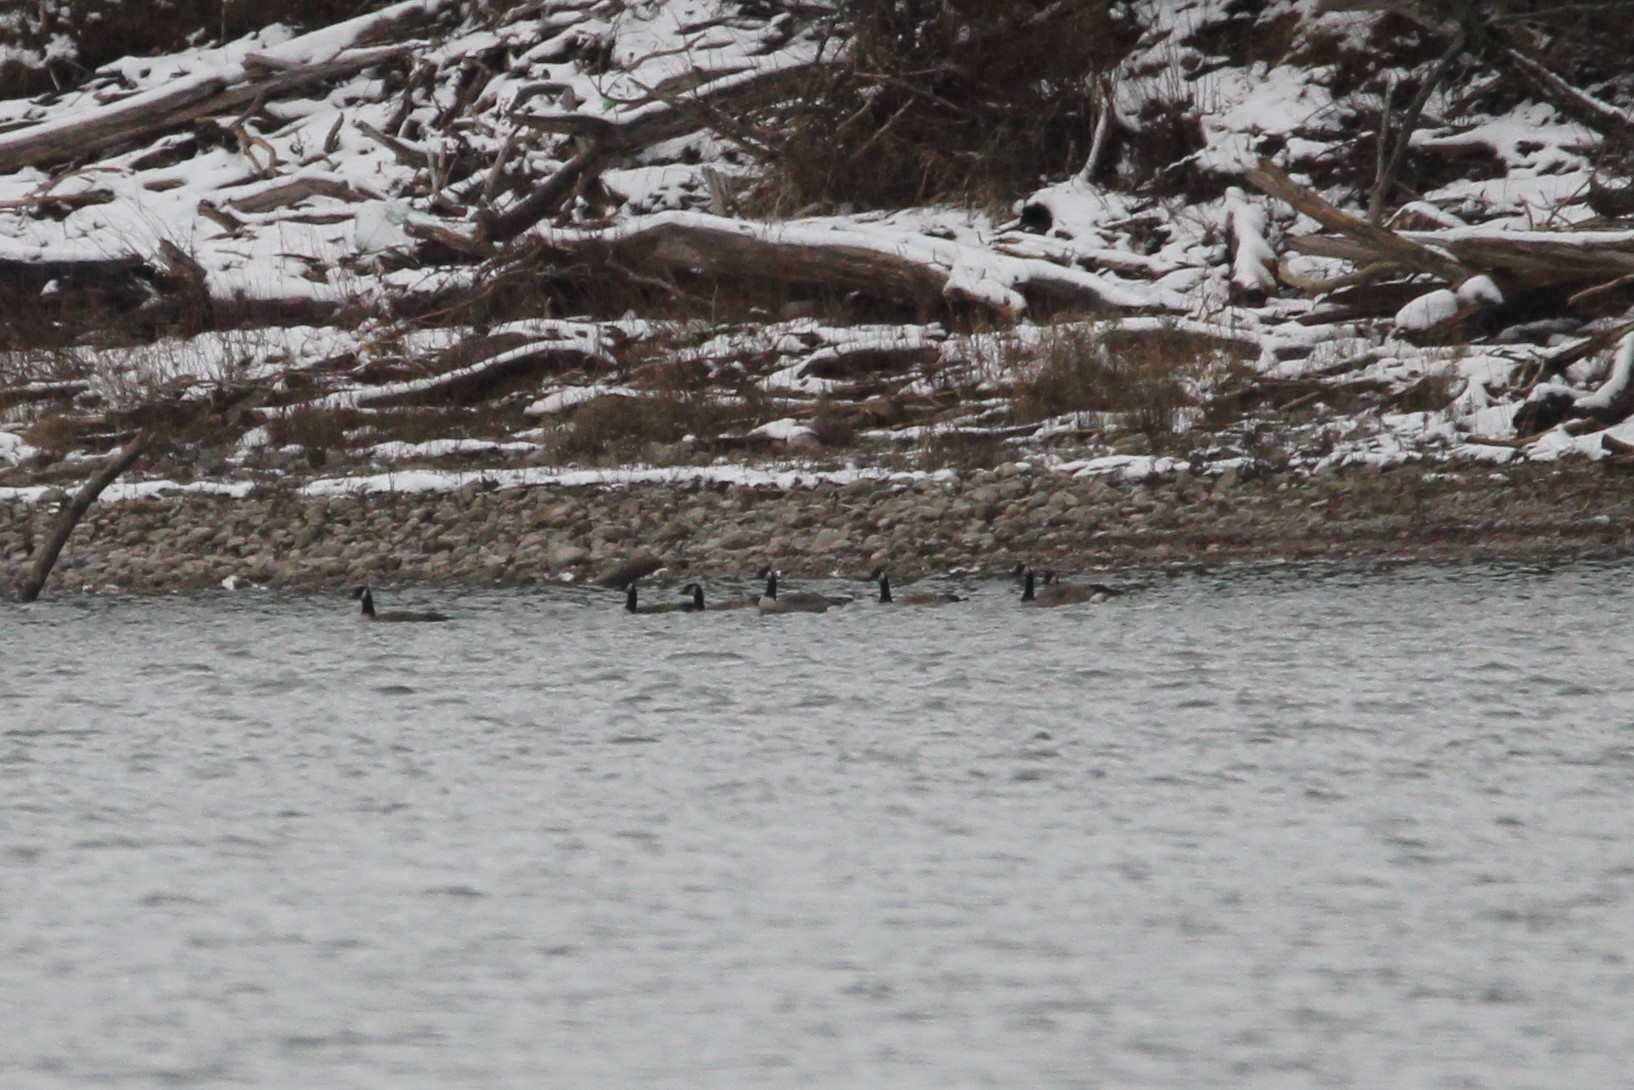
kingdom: Animalia
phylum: Chordata
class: Aves
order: Anseriformes
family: Anatidae
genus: Branta
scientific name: Branta canadensis
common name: Canada goose
